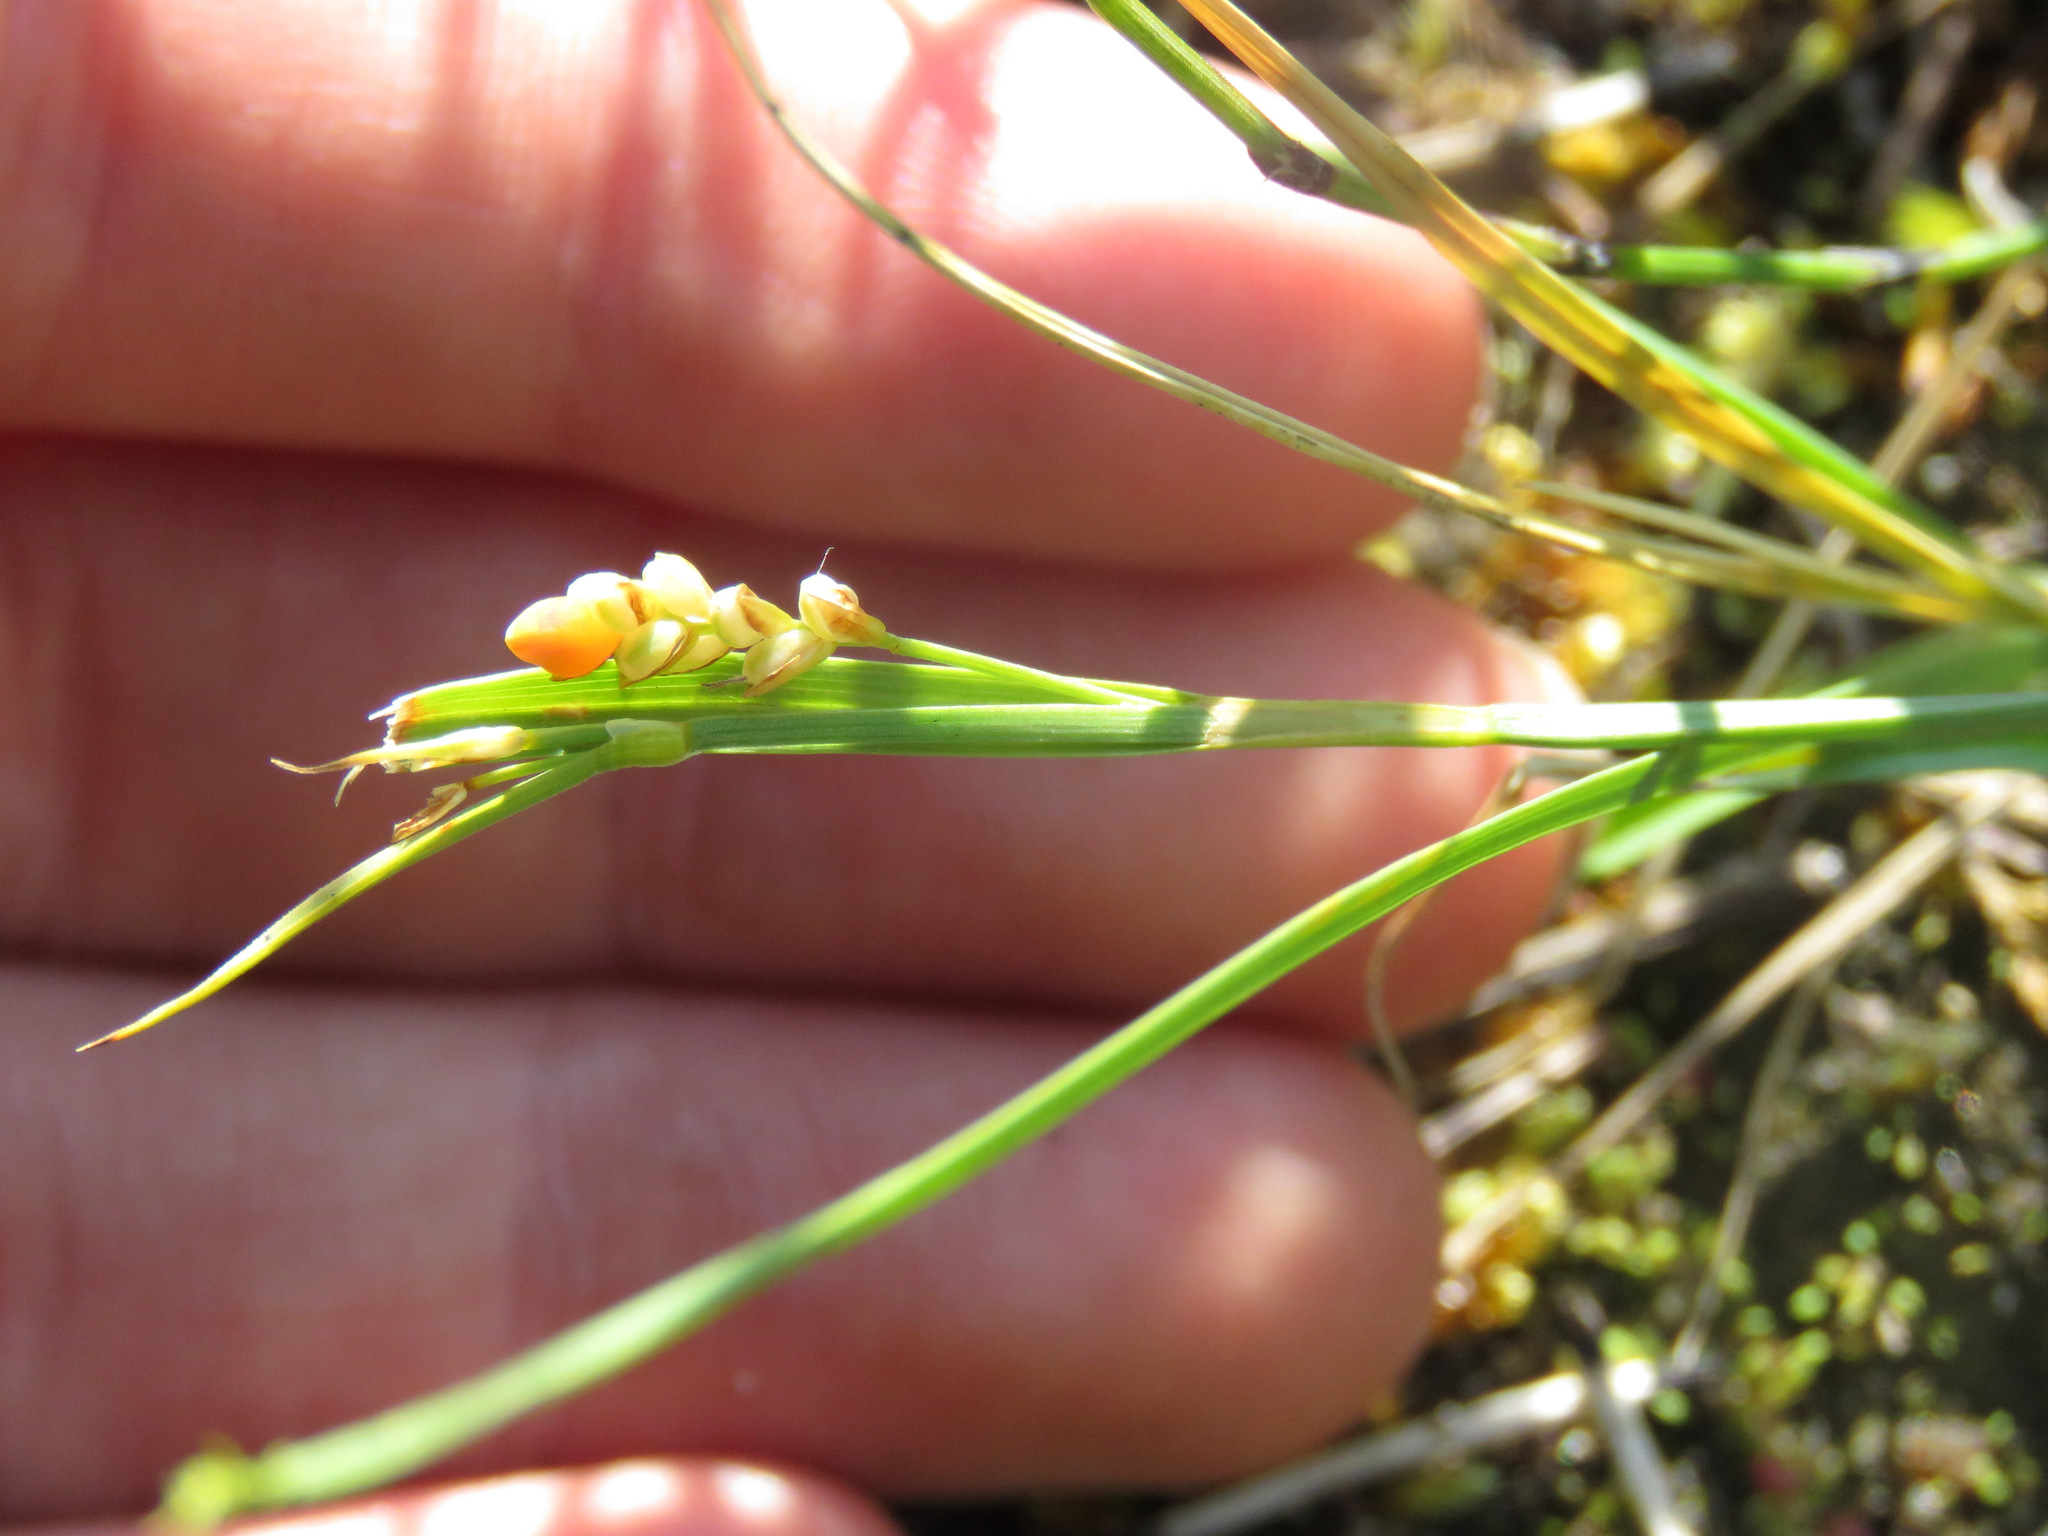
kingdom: Plantae
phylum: Tracheophyta
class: Liliopsida
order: Poales
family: Cyperaceae
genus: Carex
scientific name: Carex aurea
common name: Golden sedge
